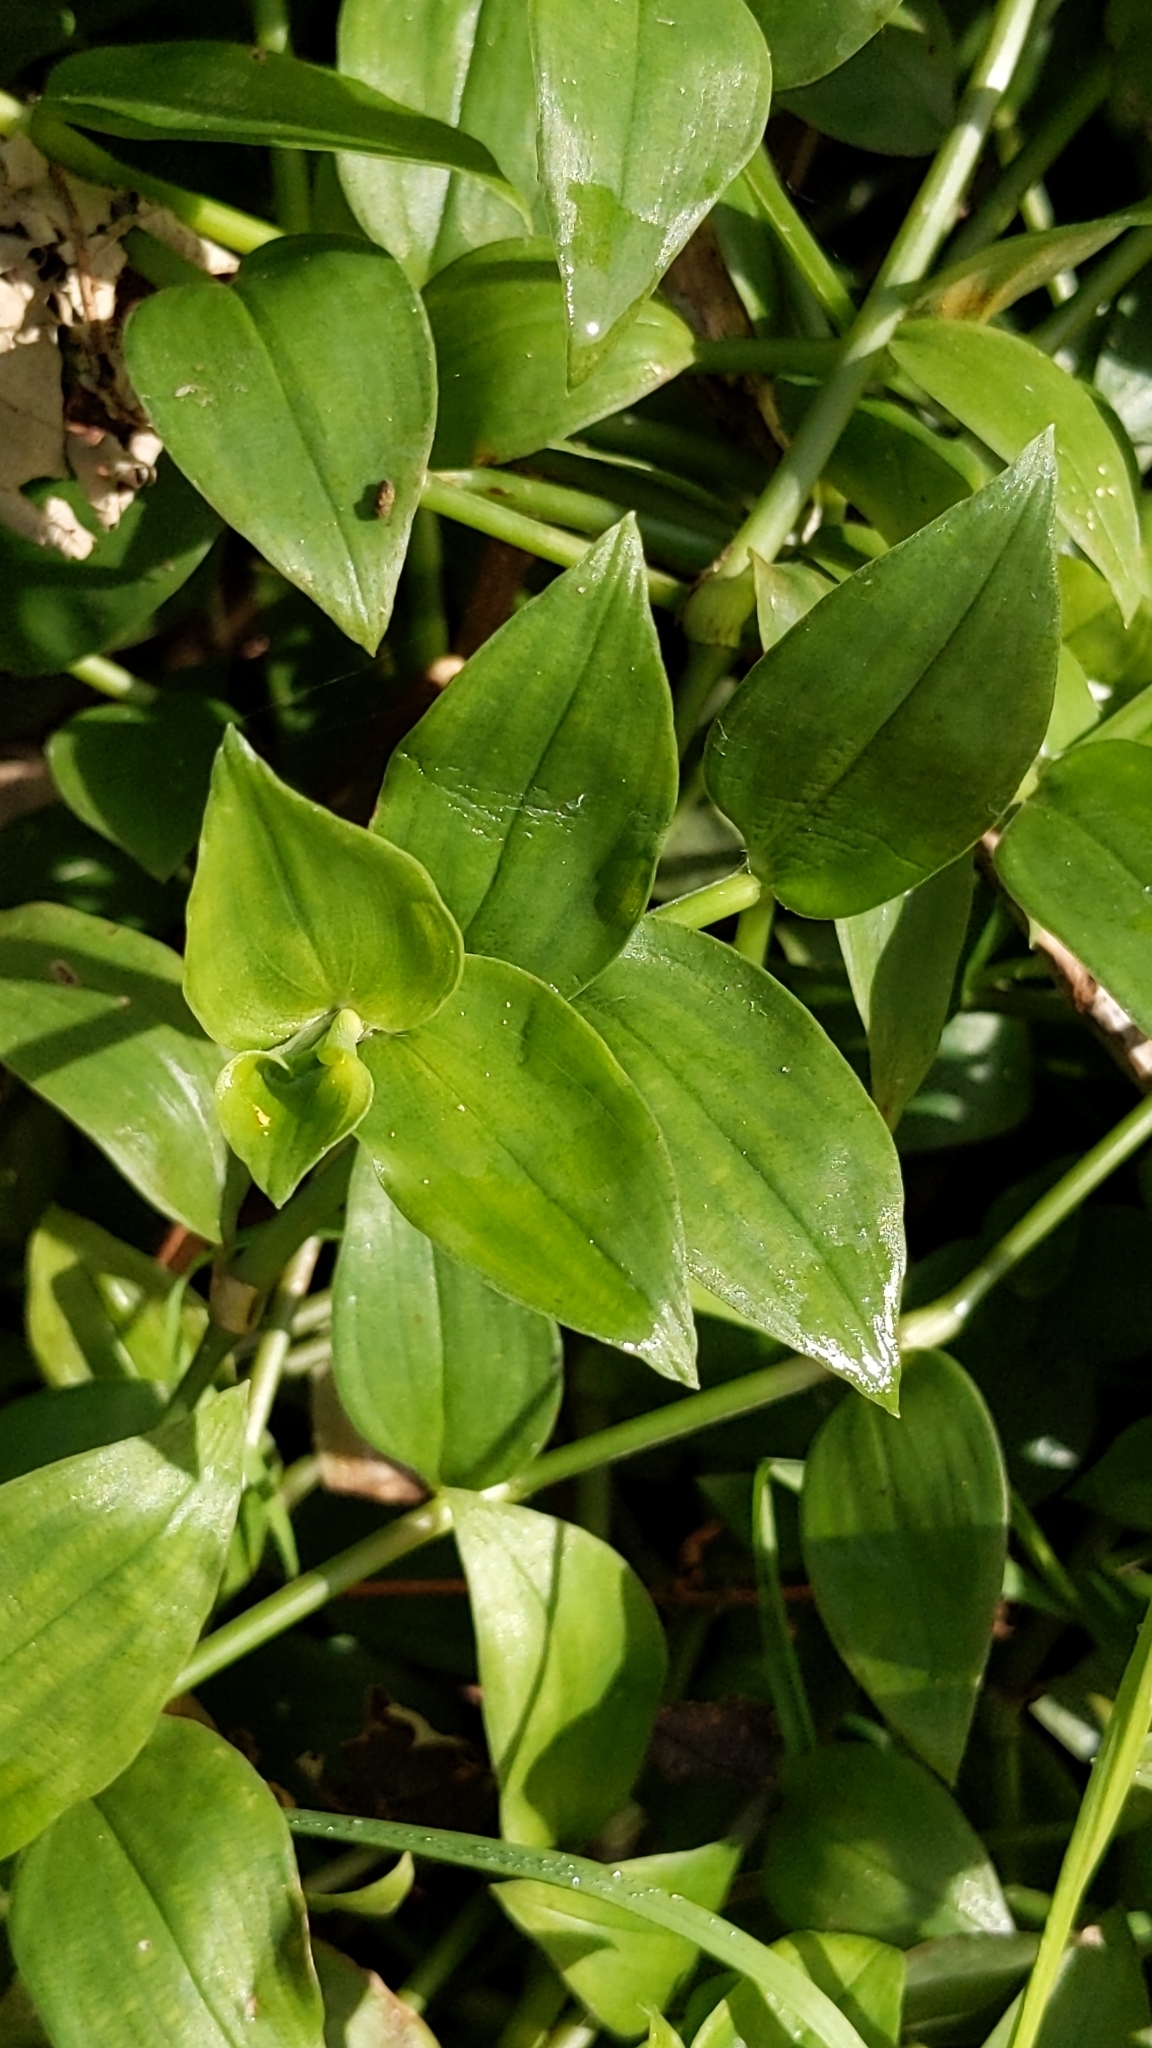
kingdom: Plantae
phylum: Tracheophyta
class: Liliopsida
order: Commelinales
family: Commelinaceae
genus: Tradescantia
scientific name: Tradescantia fluminensis
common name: Wandering-jew
